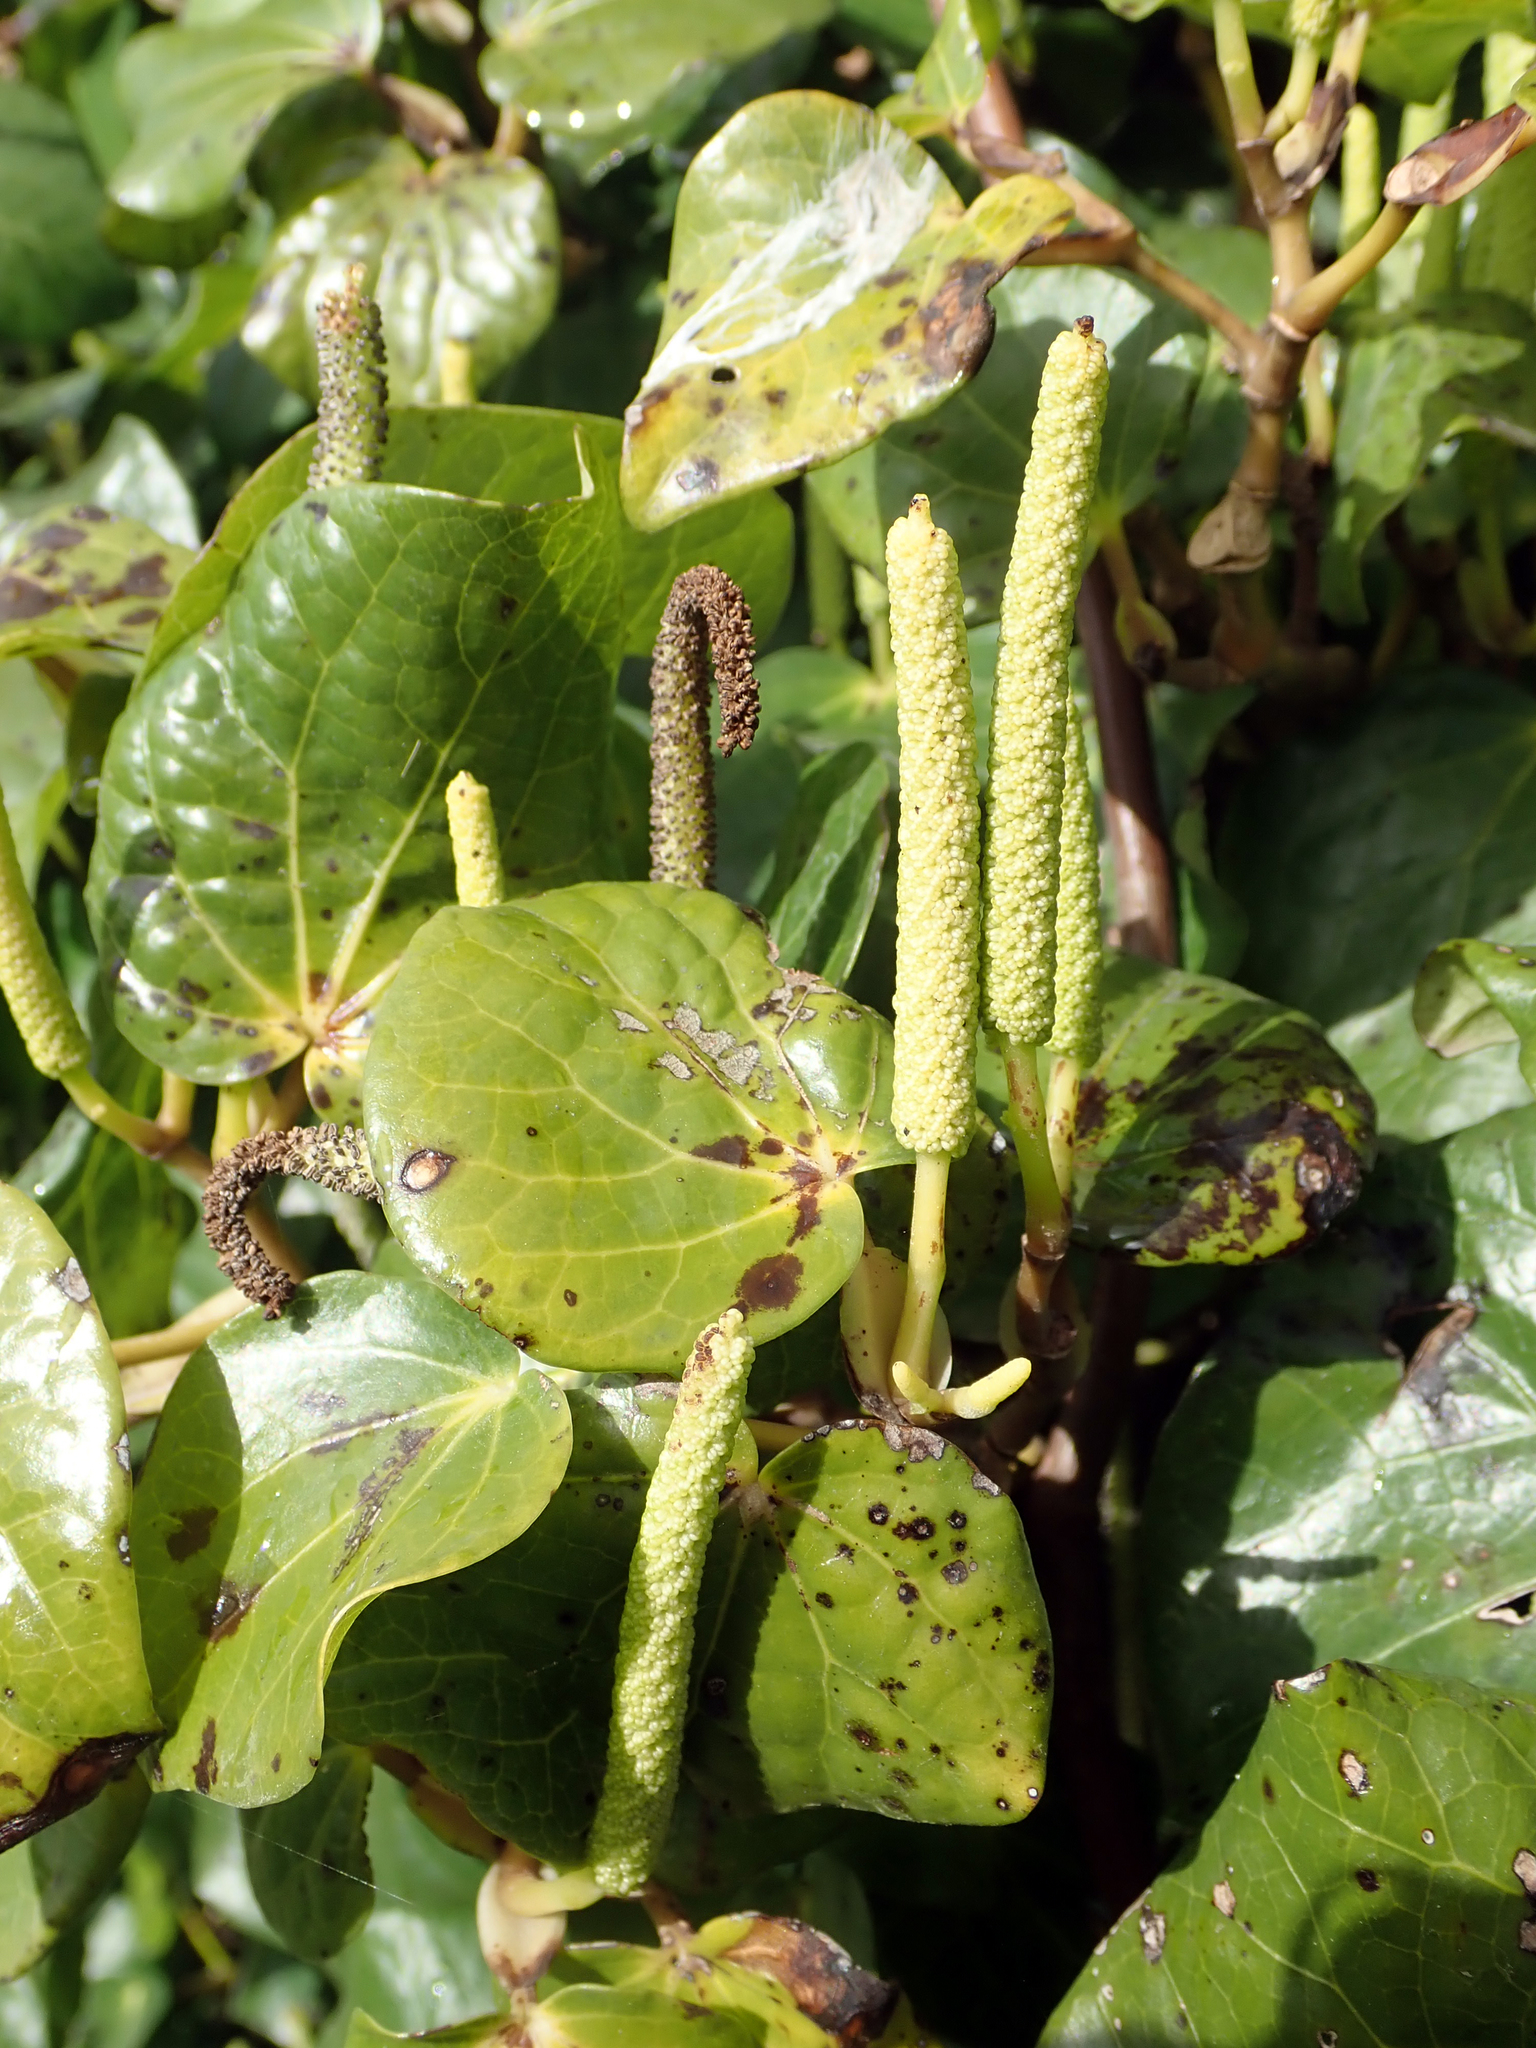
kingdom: Plantae
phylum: Tracheophyta
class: Magnoliopsida
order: Piperales
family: Piperaceae
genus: Macropiper
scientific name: Macropiper excelsum
